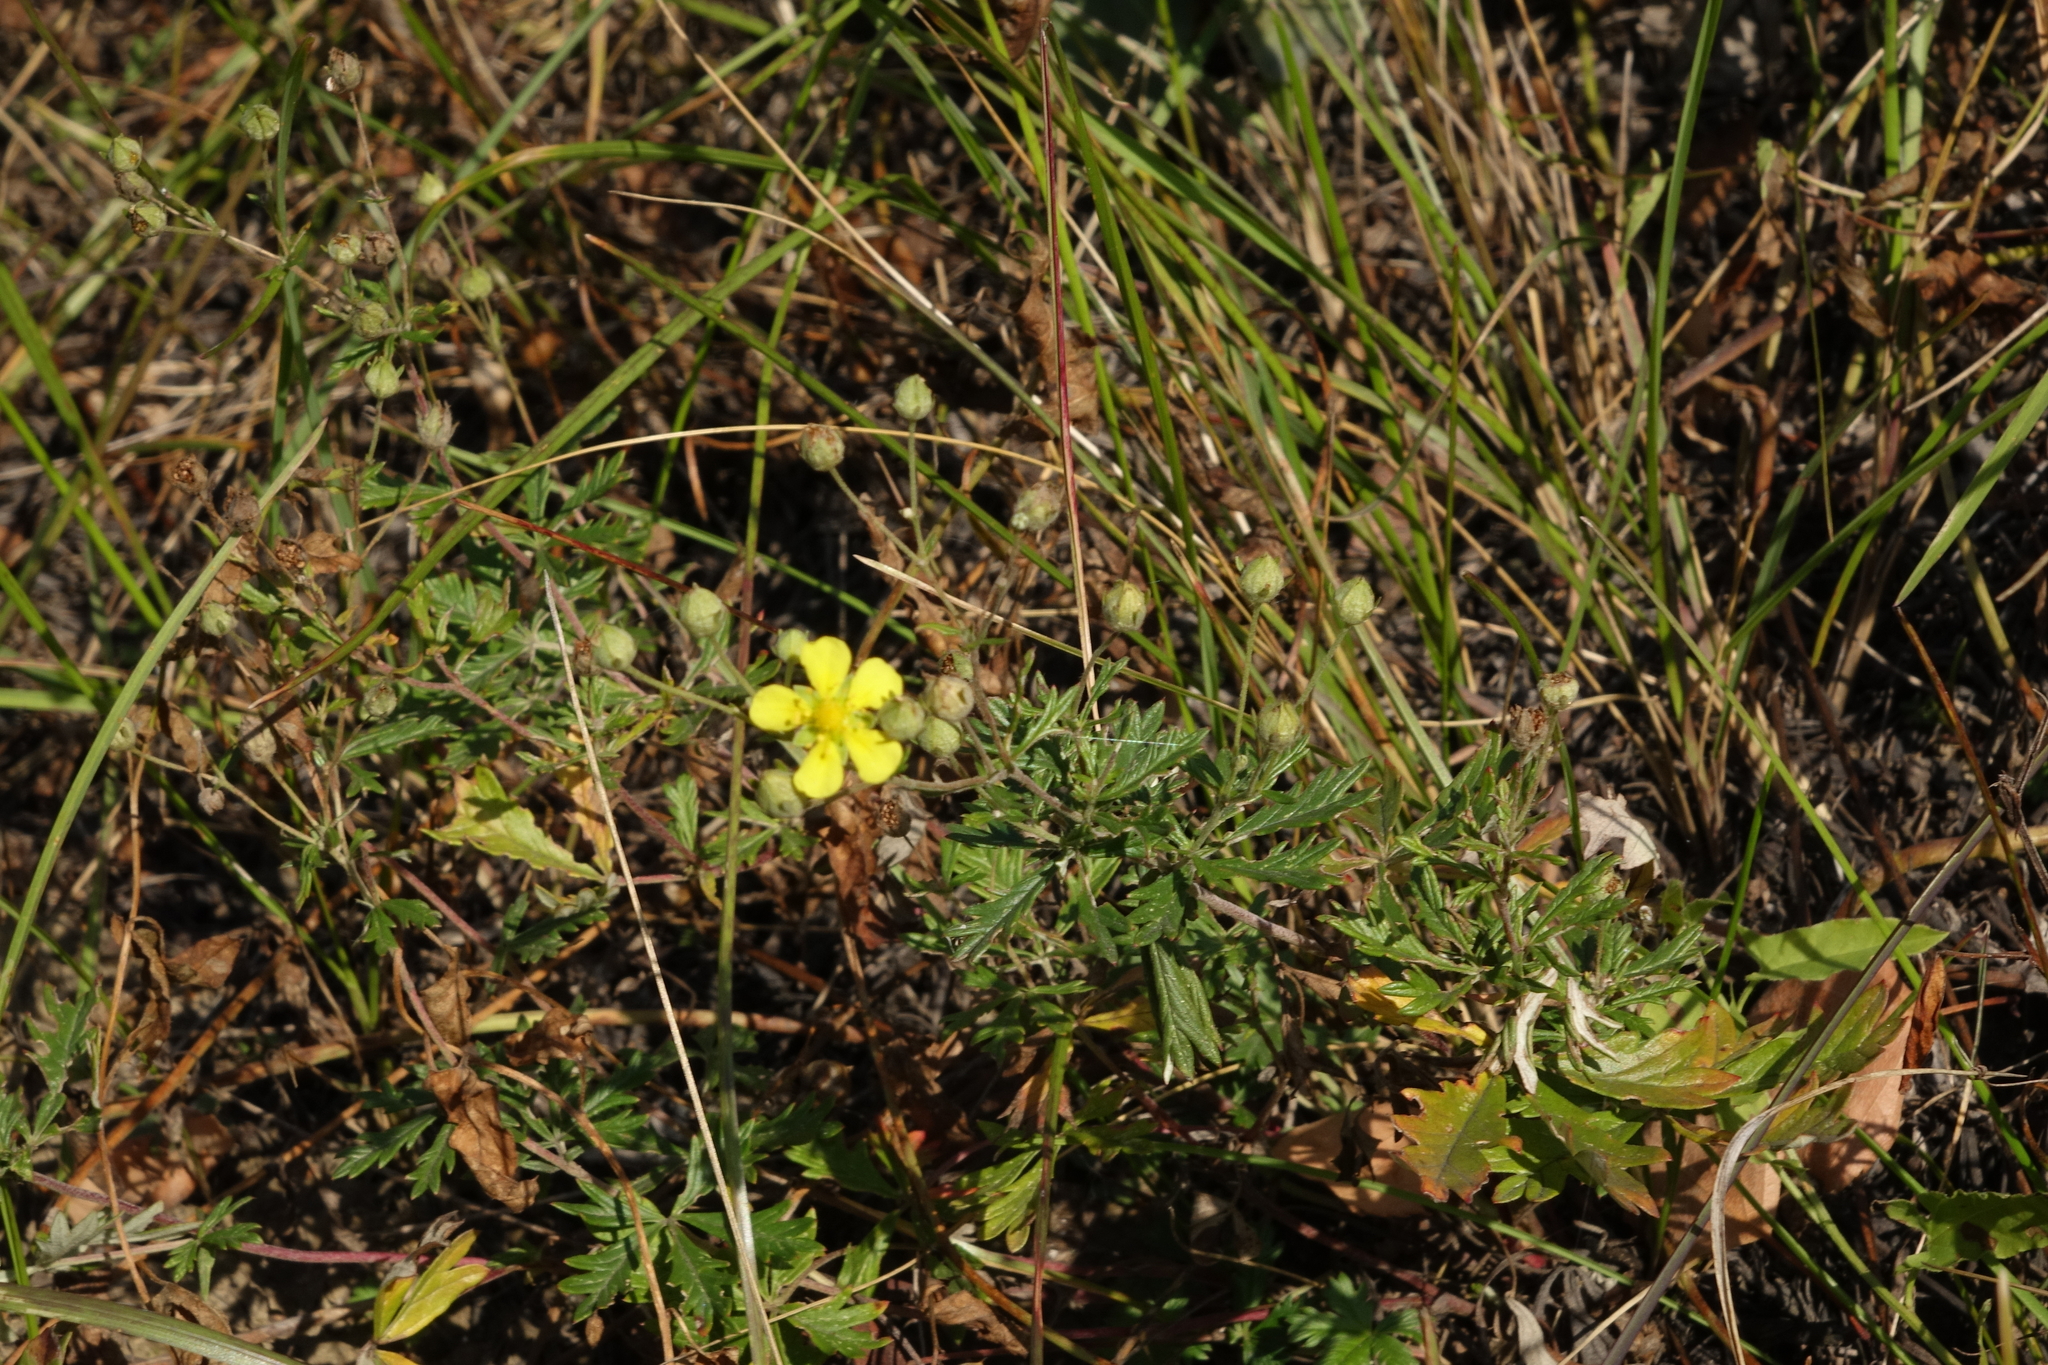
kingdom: Plantae
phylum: Tracheophyta
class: Magnoliopsida
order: Rosales
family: Rosaceae
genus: Potentilla
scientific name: Potentilla argentea
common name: Hoary cinquefoil
